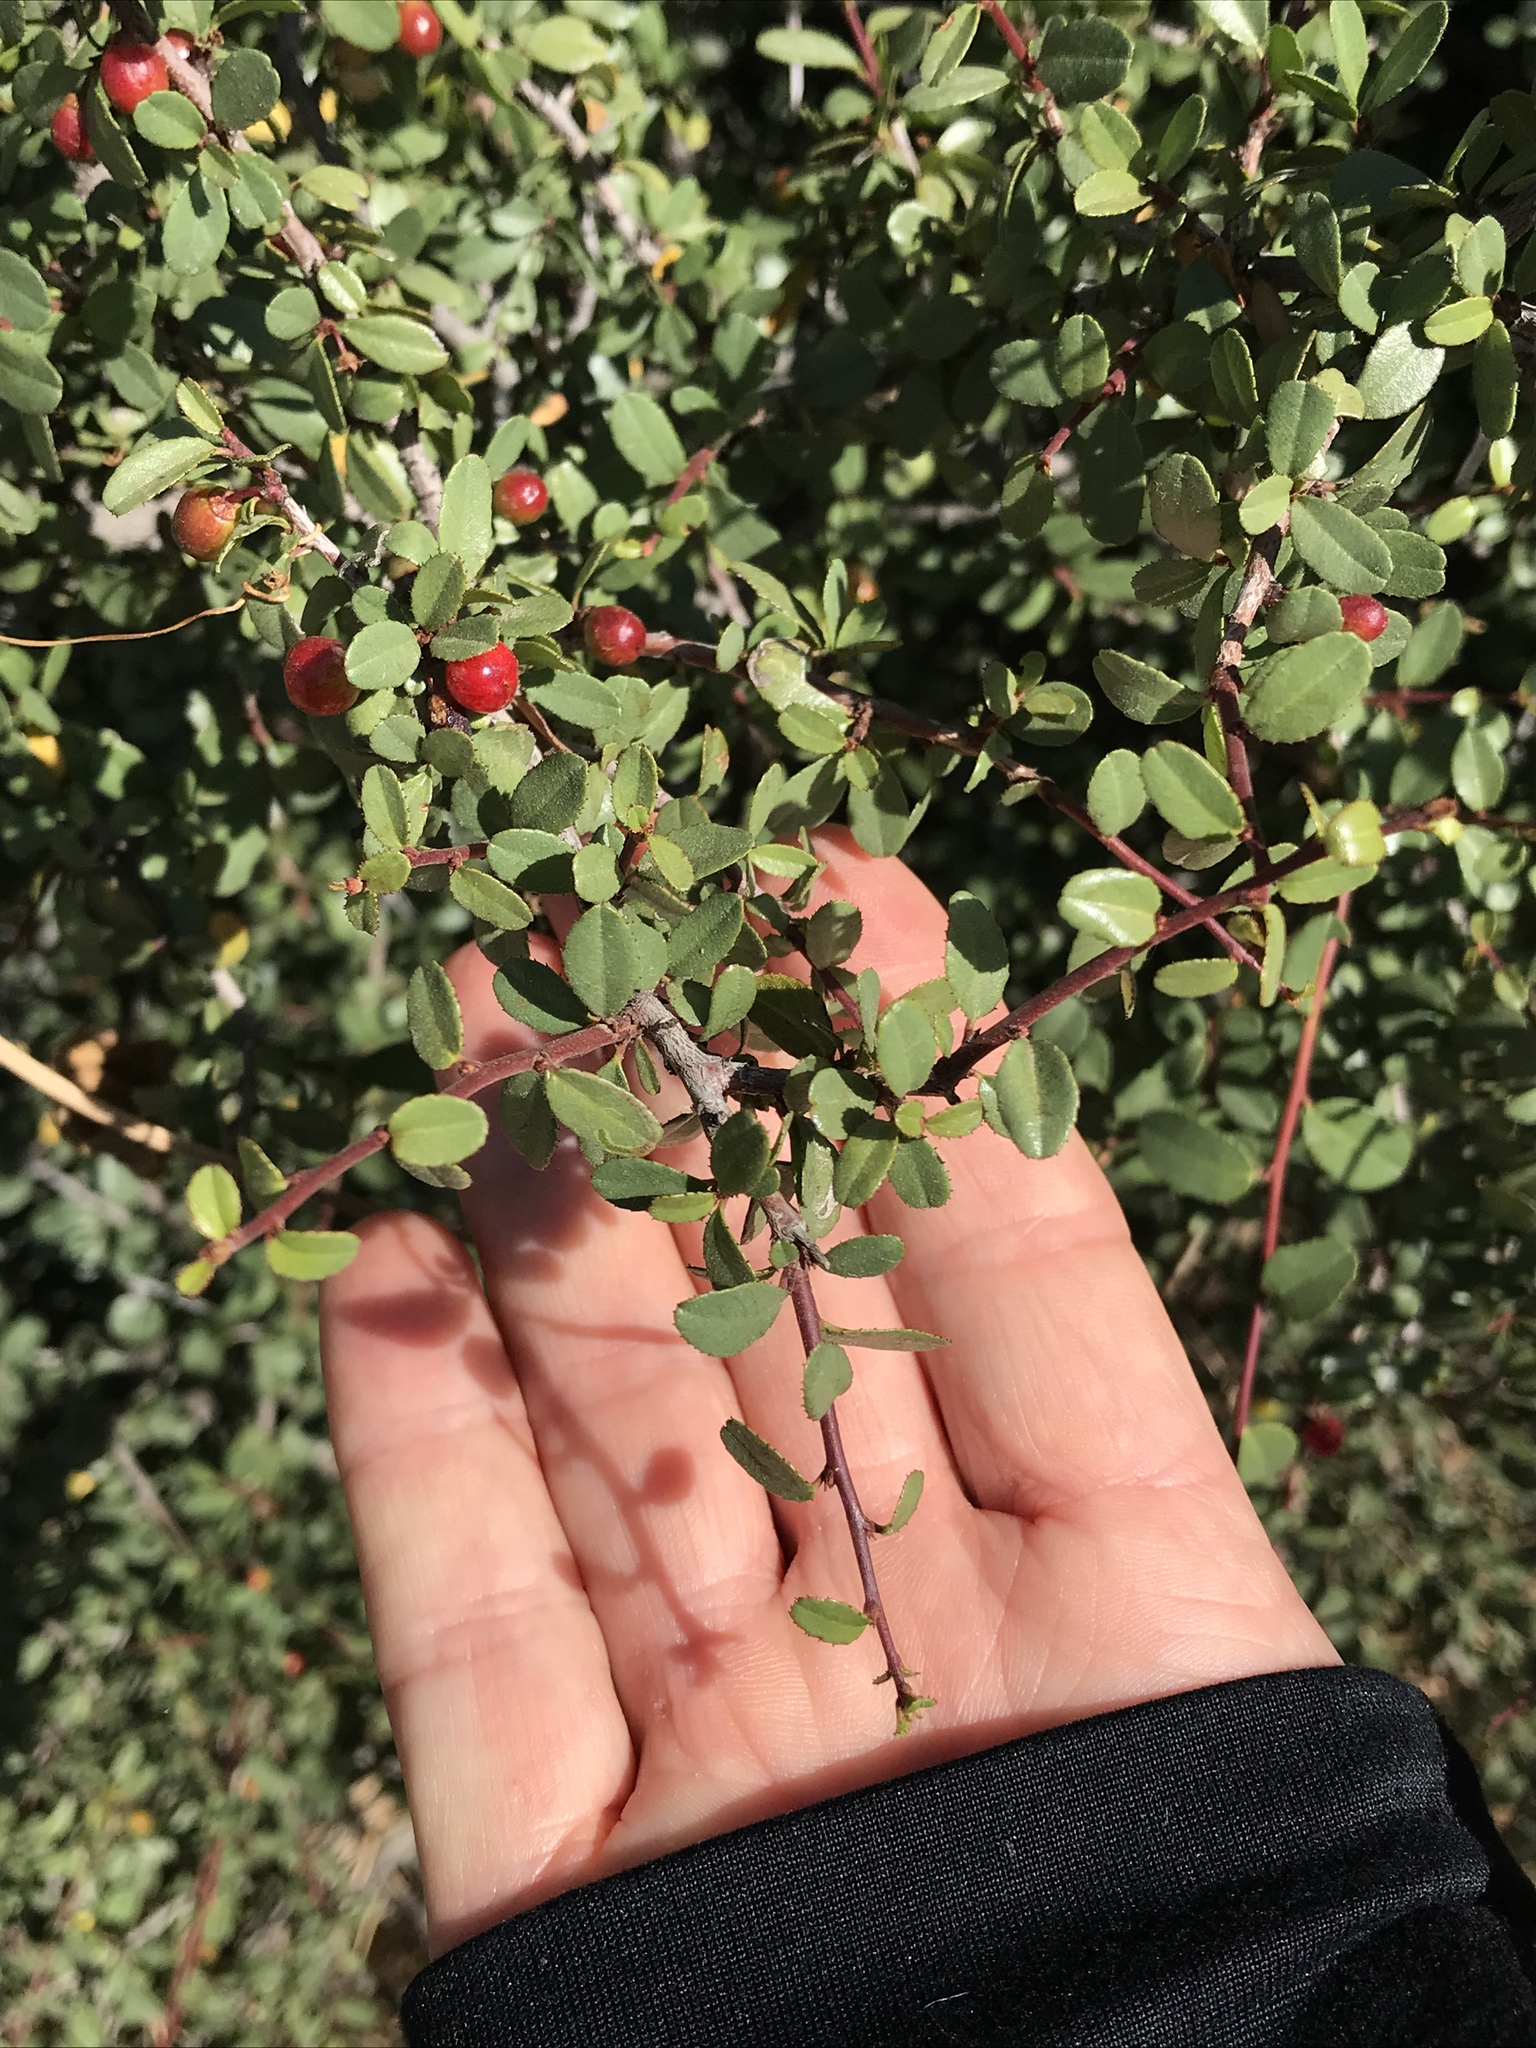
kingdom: Plantae
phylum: Tracheophyta
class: Magnoliopsida
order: Rosales
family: Rhamnaceae
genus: Endotropis
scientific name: Endotropis crocea
